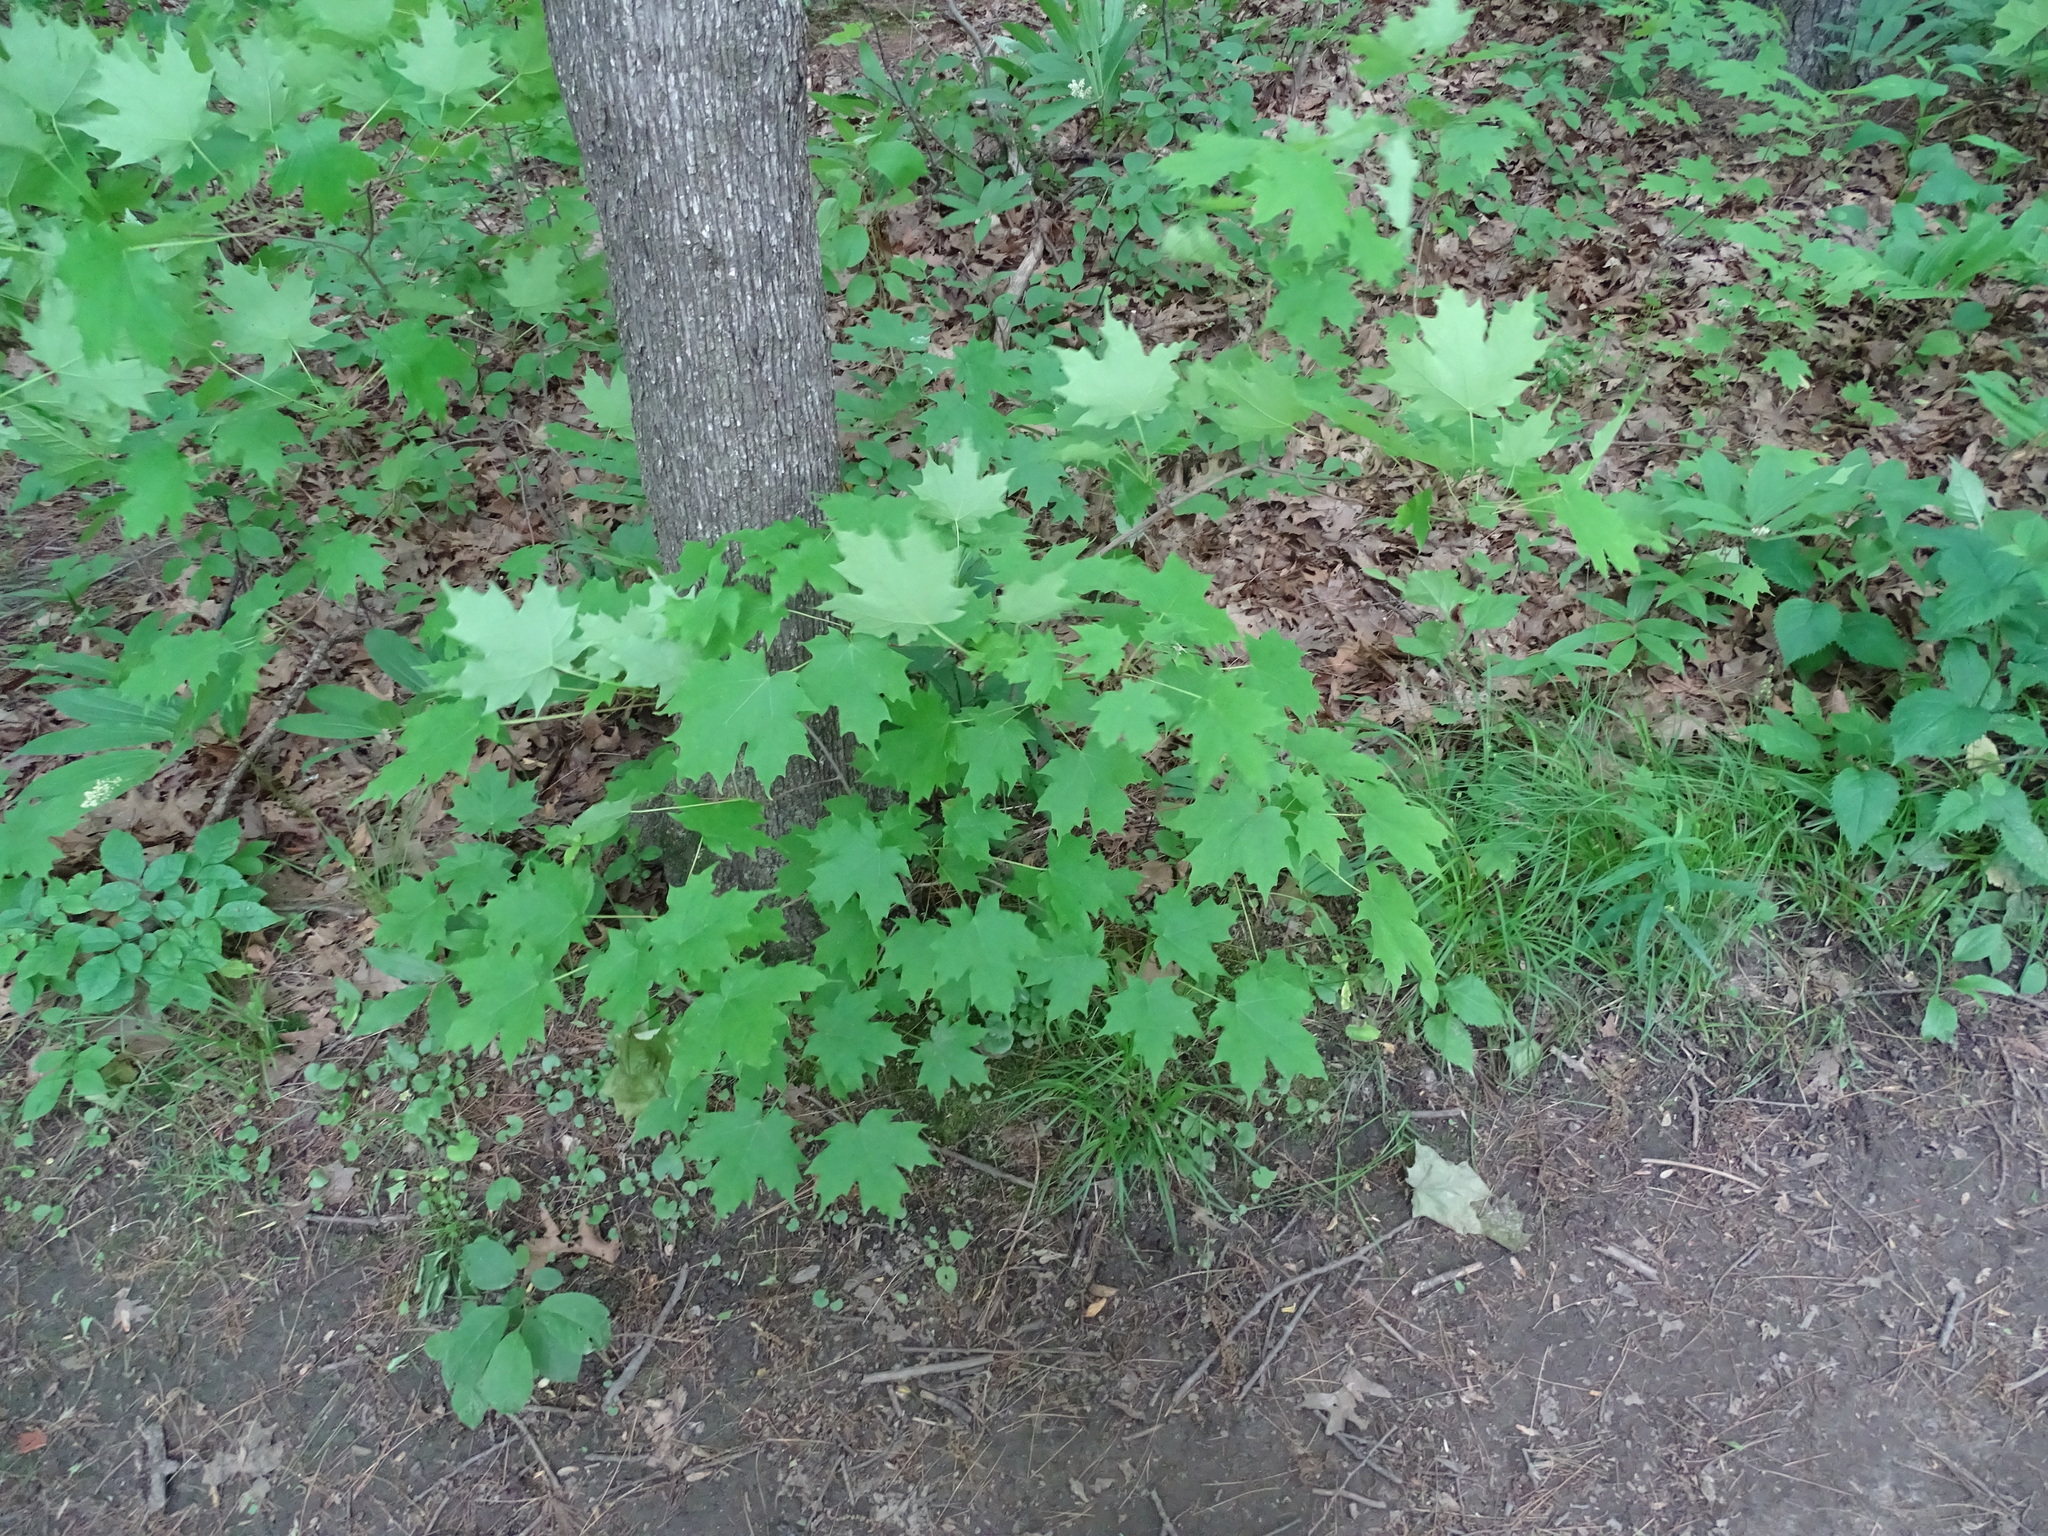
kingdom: Plantae
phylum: Tracheophyta
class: Magnoliopsida
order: Sapindales
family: Sapindaceae
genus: Acer
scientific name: Acer saccharum
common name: Sugar maple
